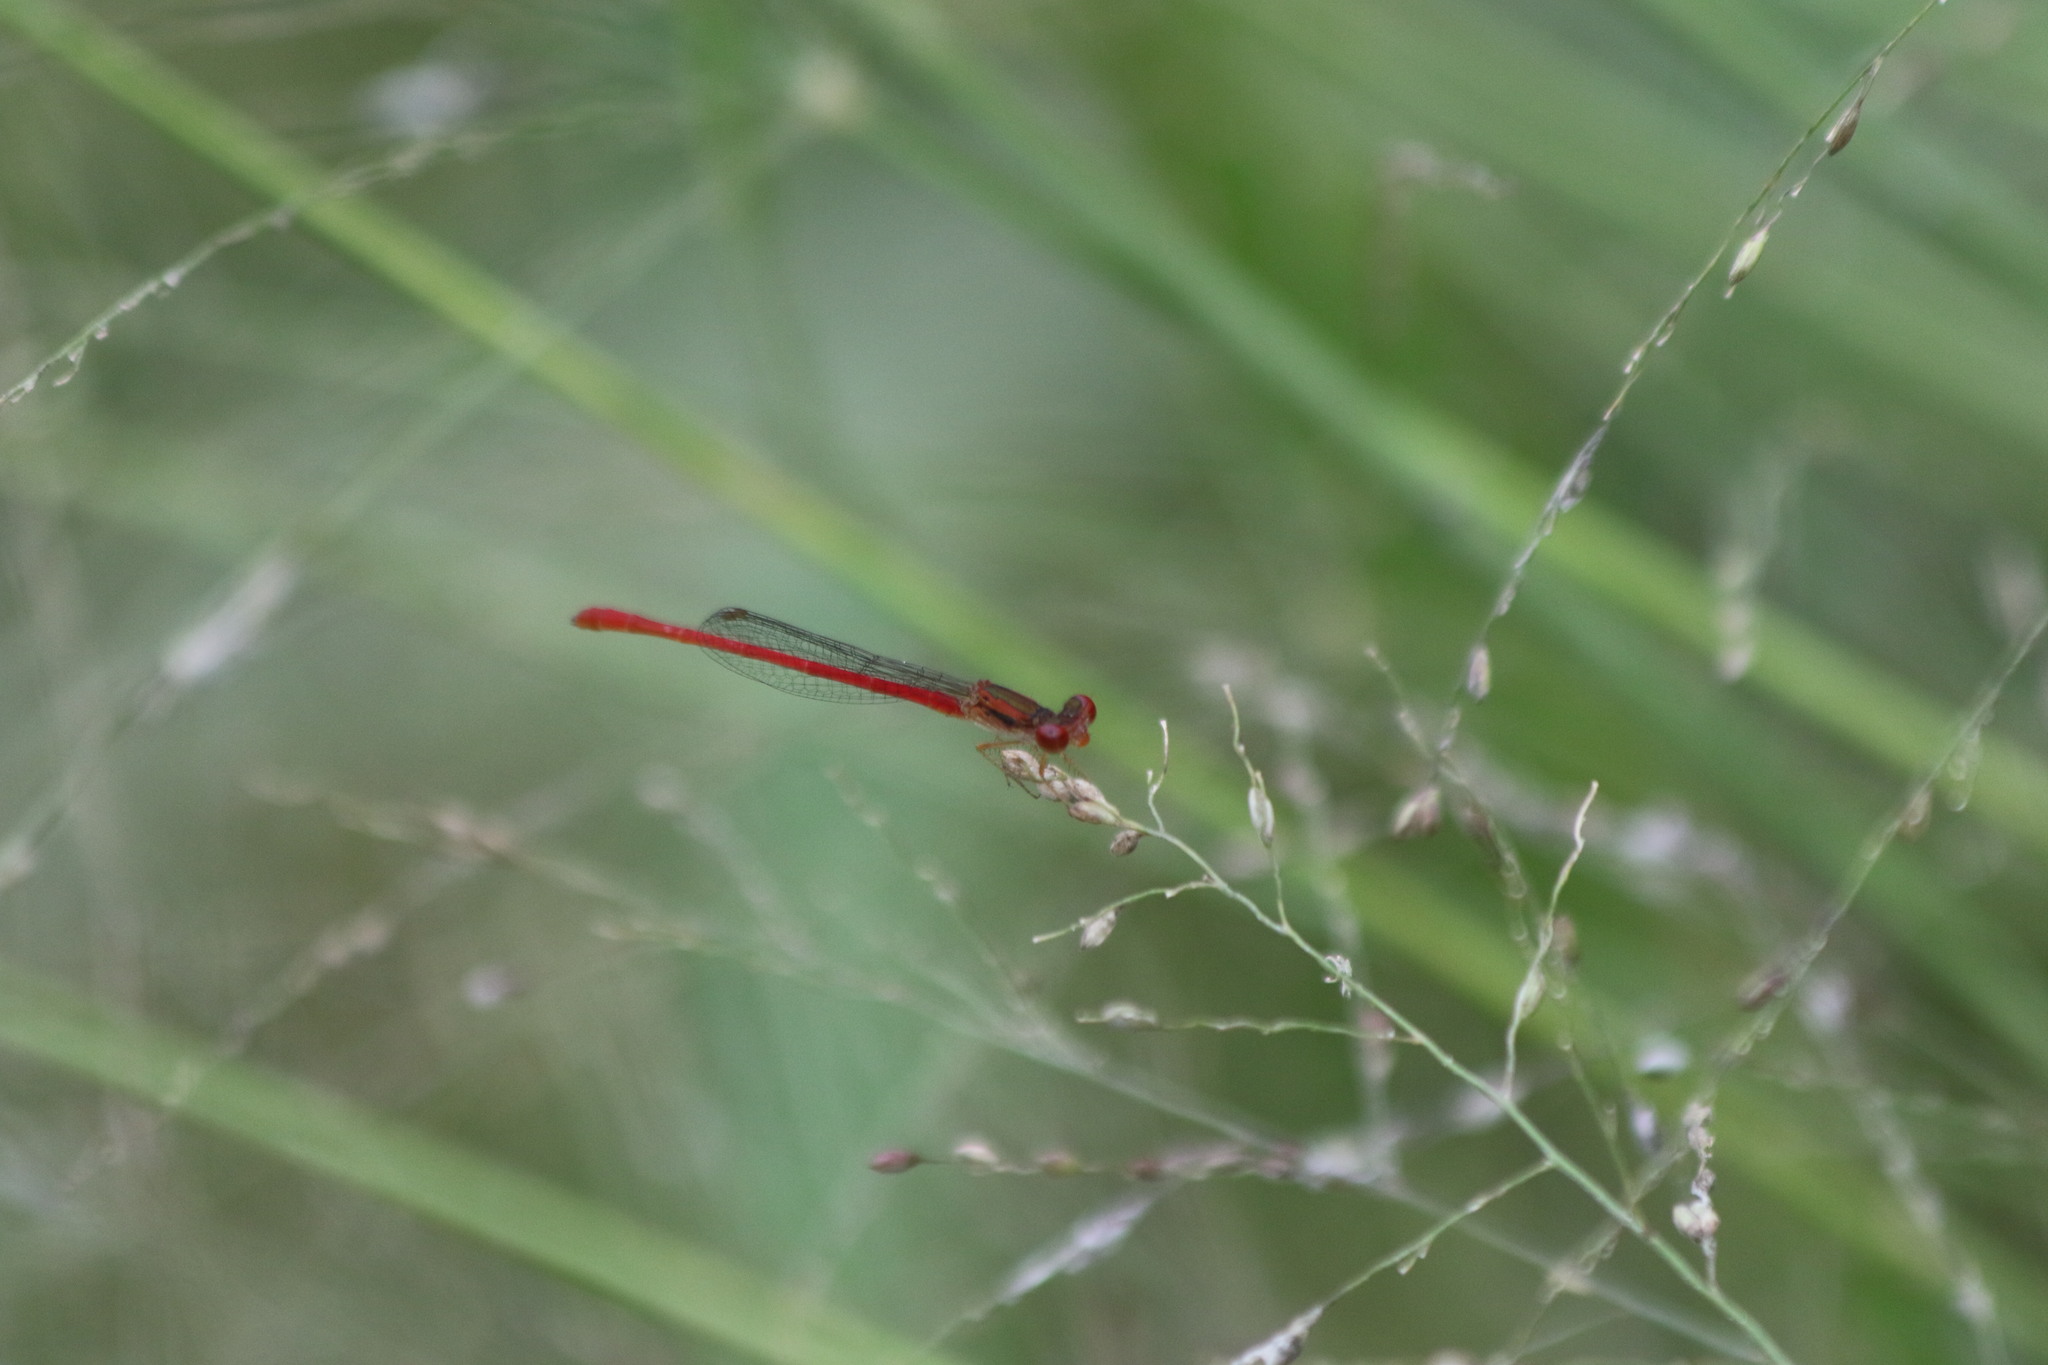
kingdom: Animalia
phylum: Arthropoda
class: Insecta
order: Odonata
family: Coenagrionidae
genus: Telebasis
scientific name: Telebasis salva
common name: Desert firetail
